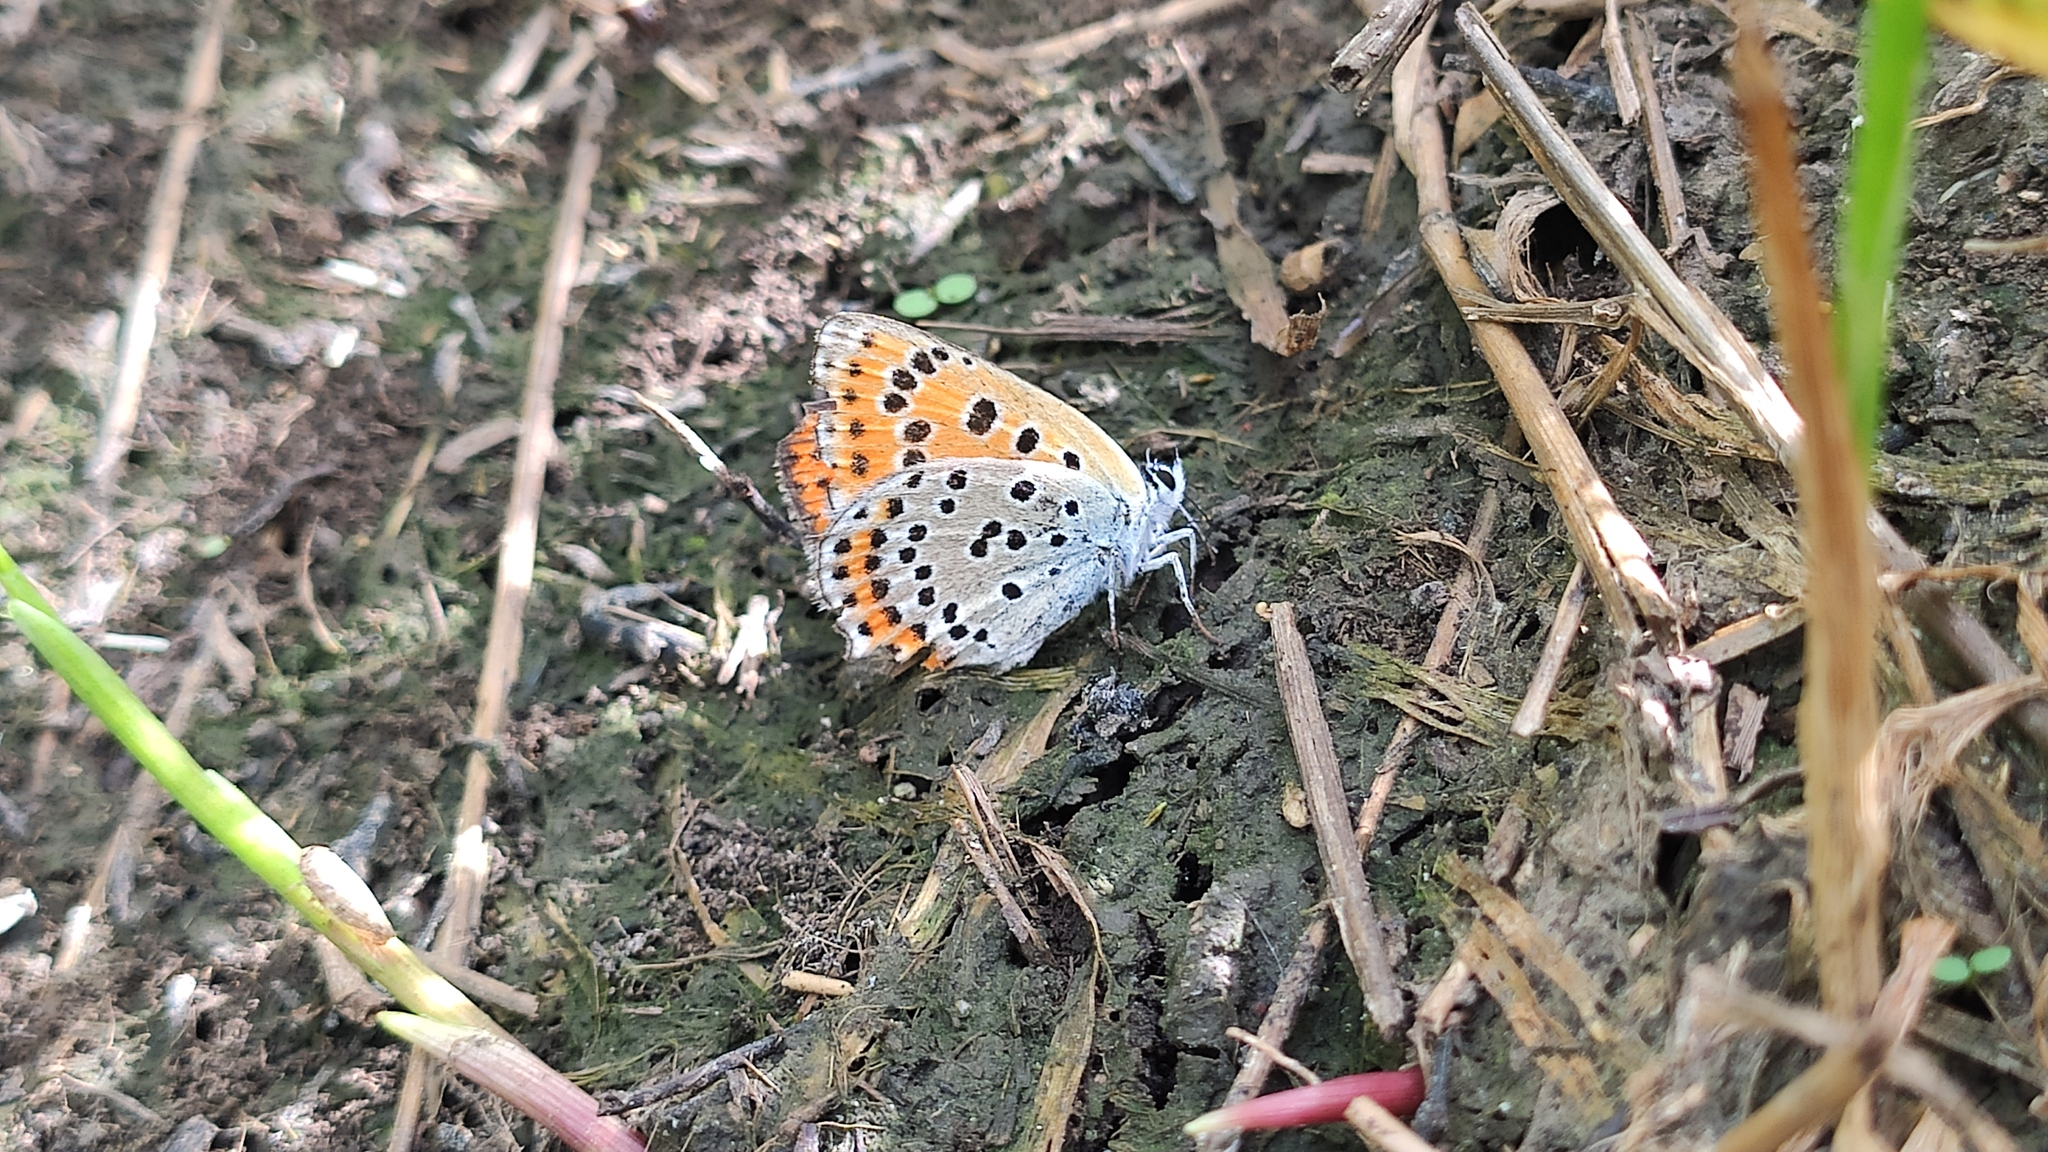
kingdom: Animalia
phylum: Arthropoda
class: Insecta
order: Lepidoptera
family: Lycaenidae
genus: Thersamonia
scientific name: Thersamonia thersamon
